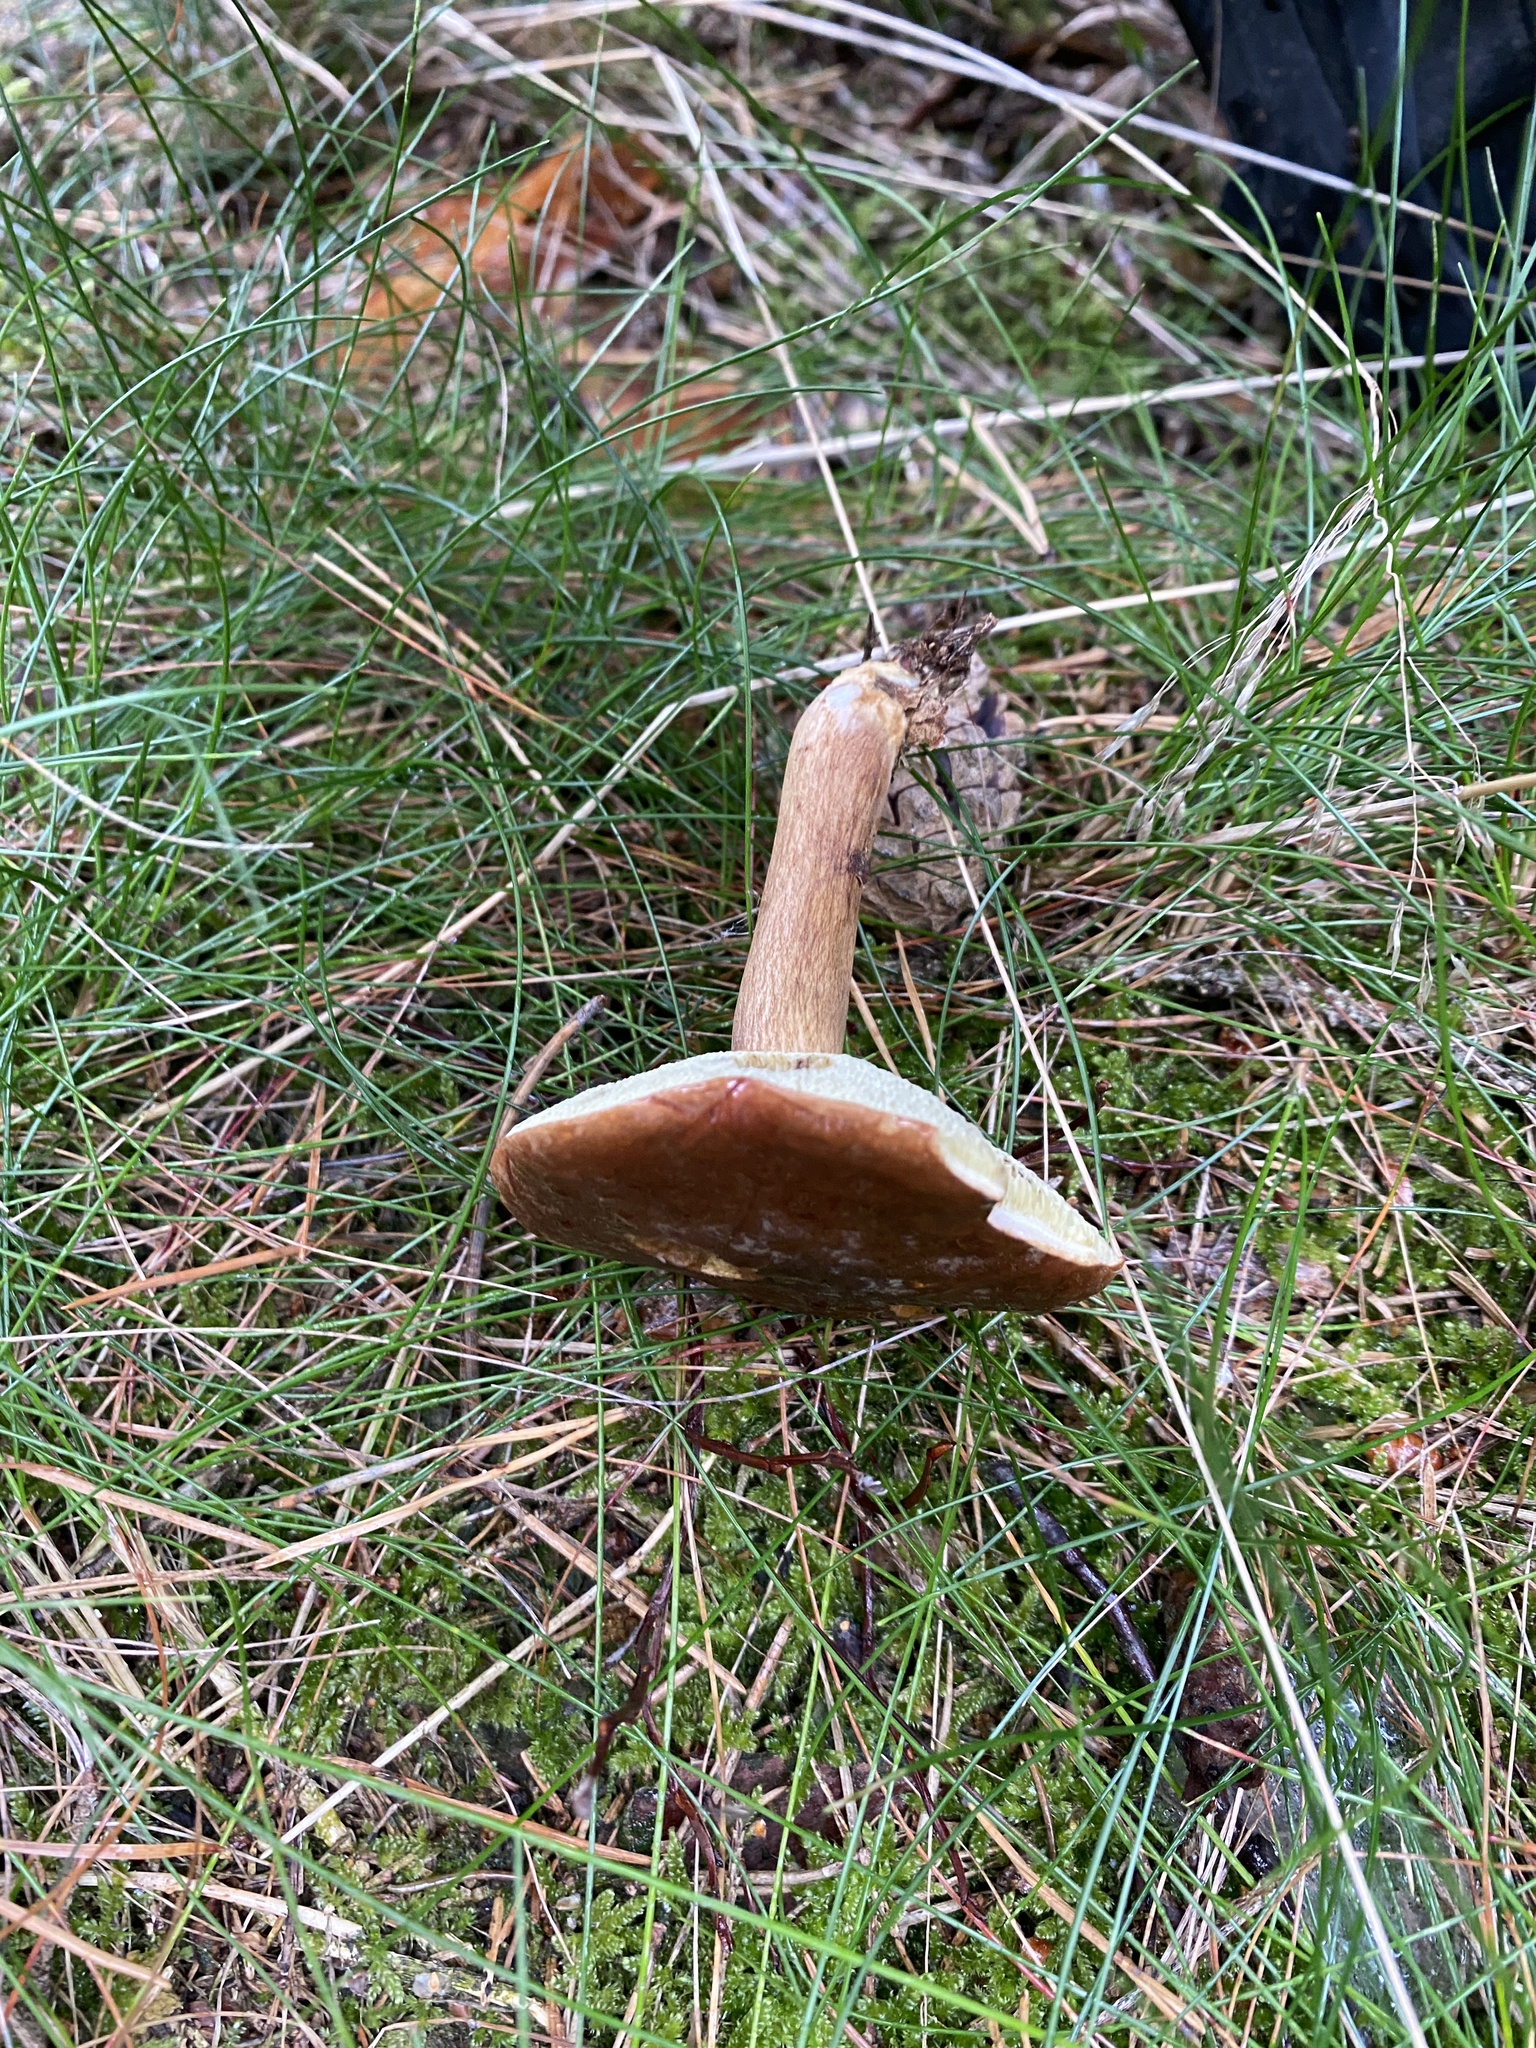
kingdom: Fungi
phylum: Basidiomycota
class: Agaricomycetes
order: Boletales
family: Boletaceae
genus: Imleria
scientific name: Imleria badia
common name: Bay bolete
